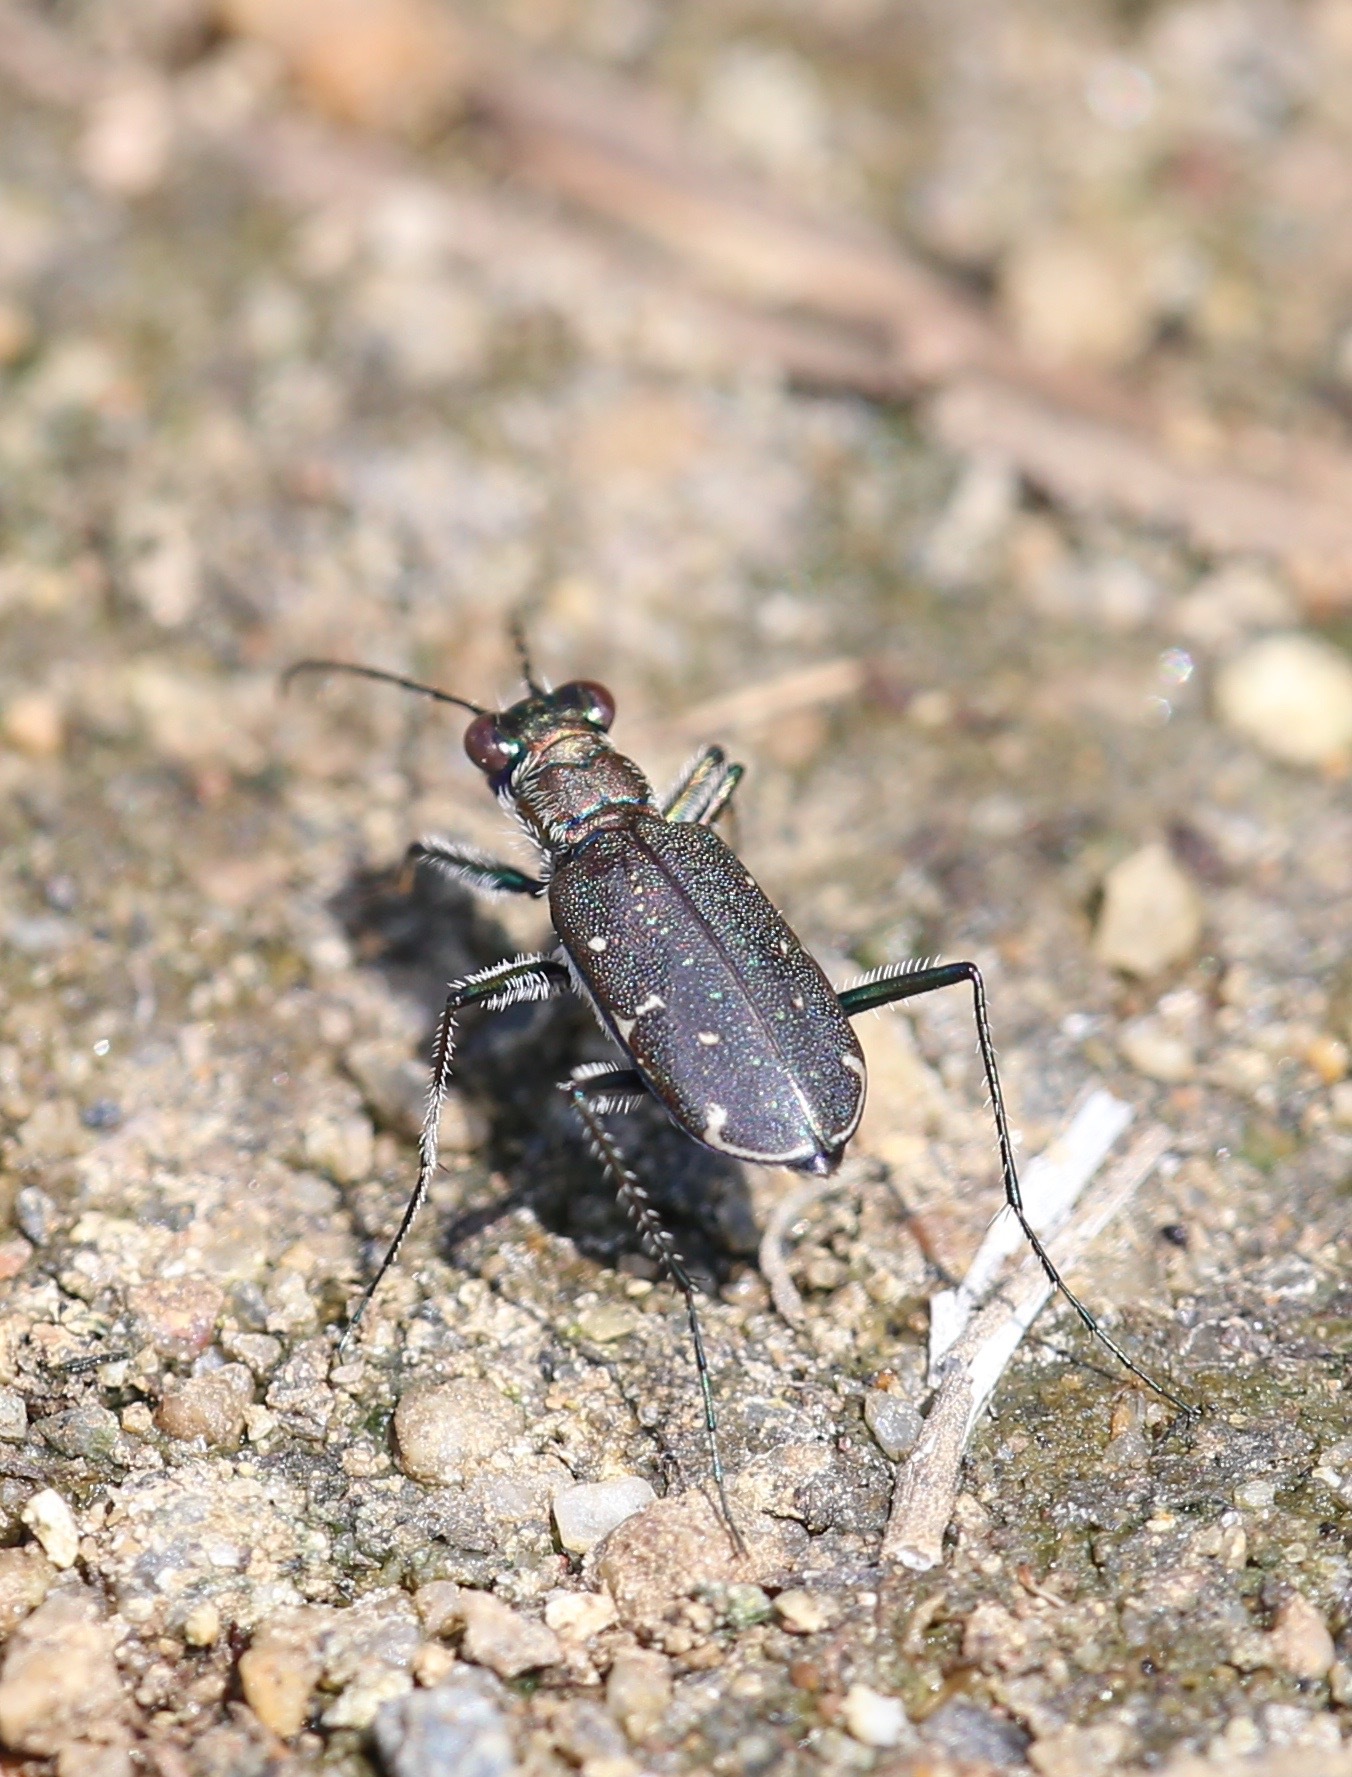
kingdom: Animalia
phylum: Arthropoda
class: Insecta
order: Coleoptera
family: Carabidae
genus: Cicindela
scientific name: Cicindela punctulata
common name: Punctured tiger beetle
